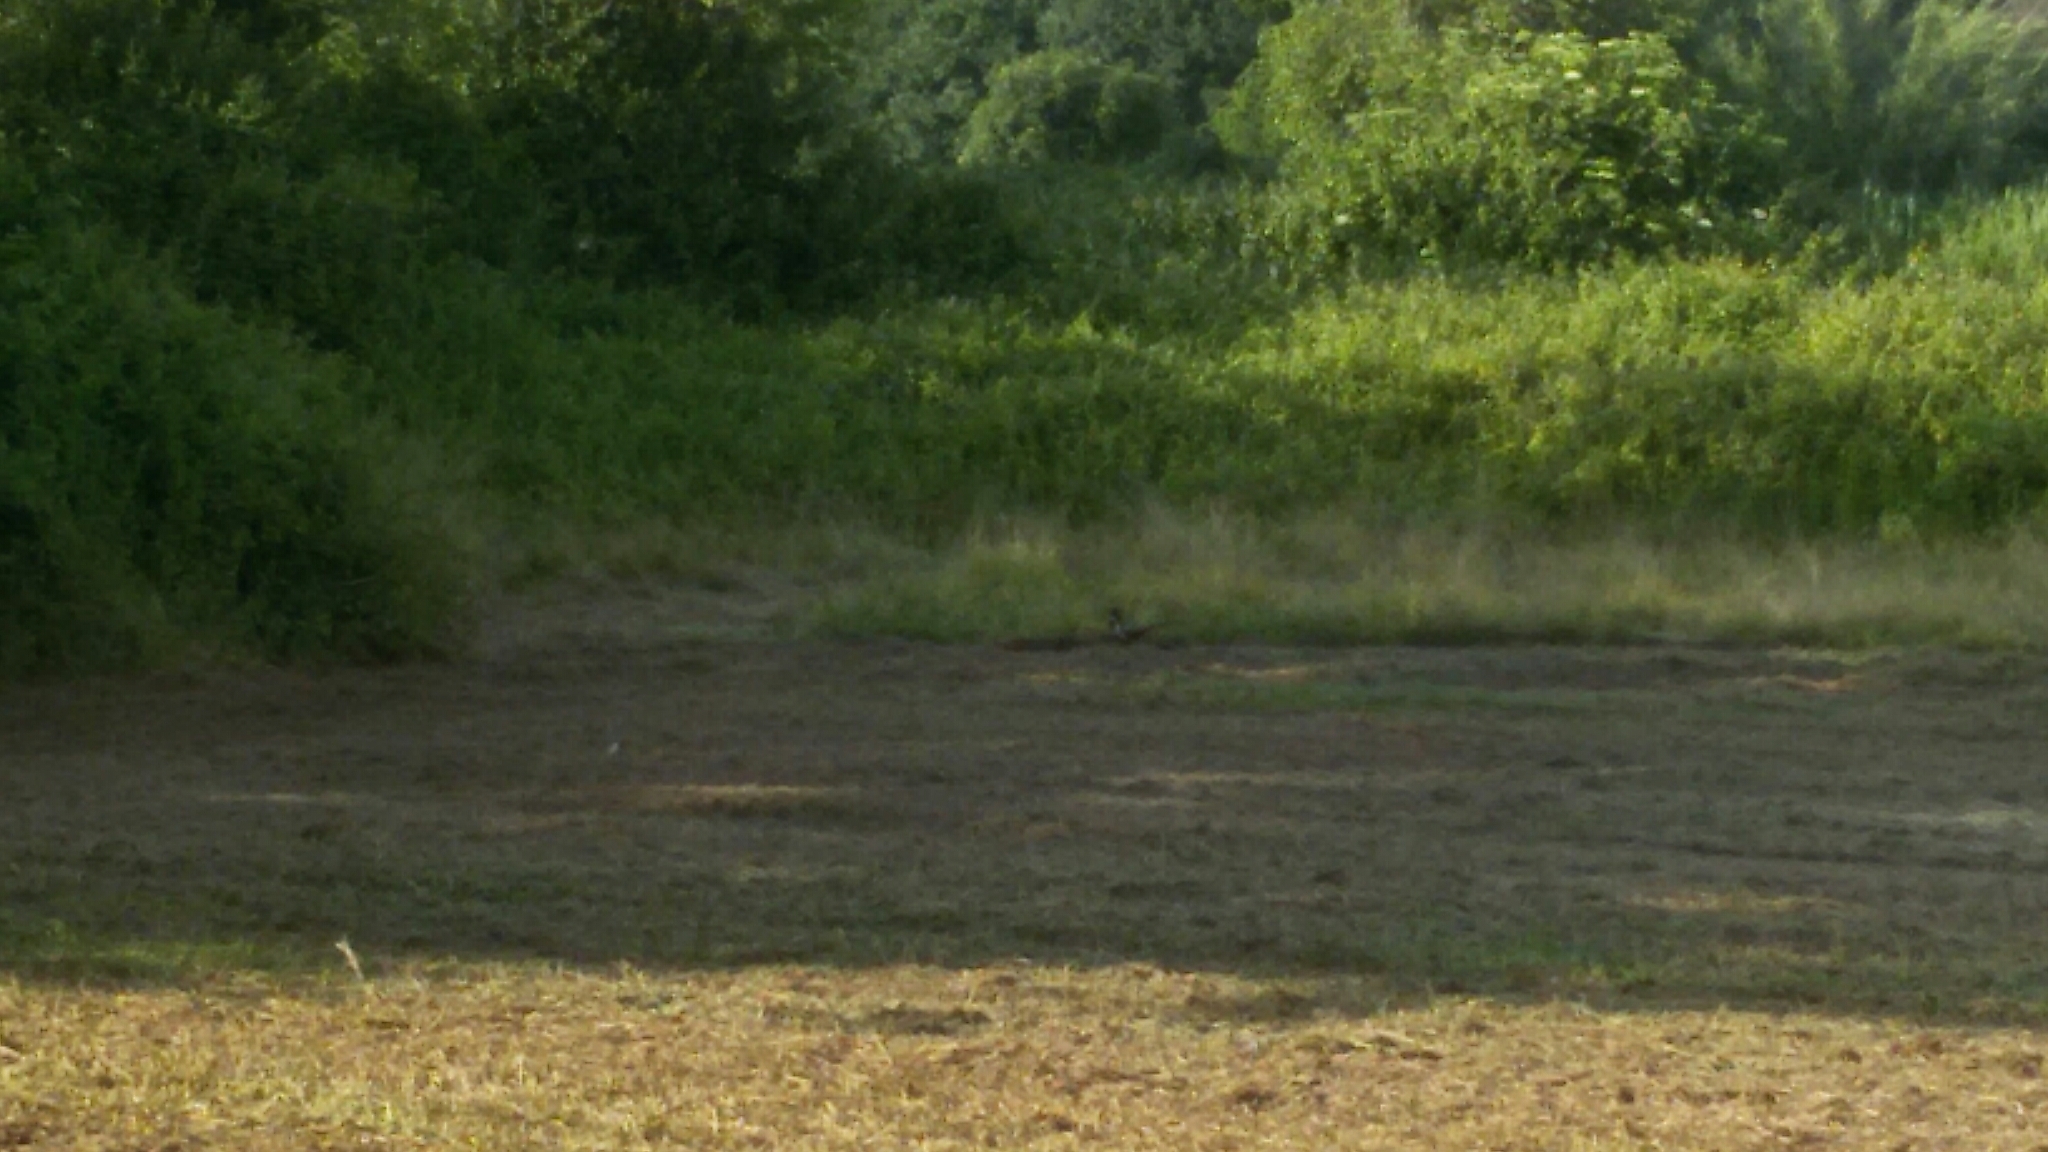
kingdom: Animalia
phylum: Chordata
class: Aves
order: Galliformes
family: Phasianidae
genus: Phasianus
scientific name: Phasianus colchicus
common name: Common pheasant
